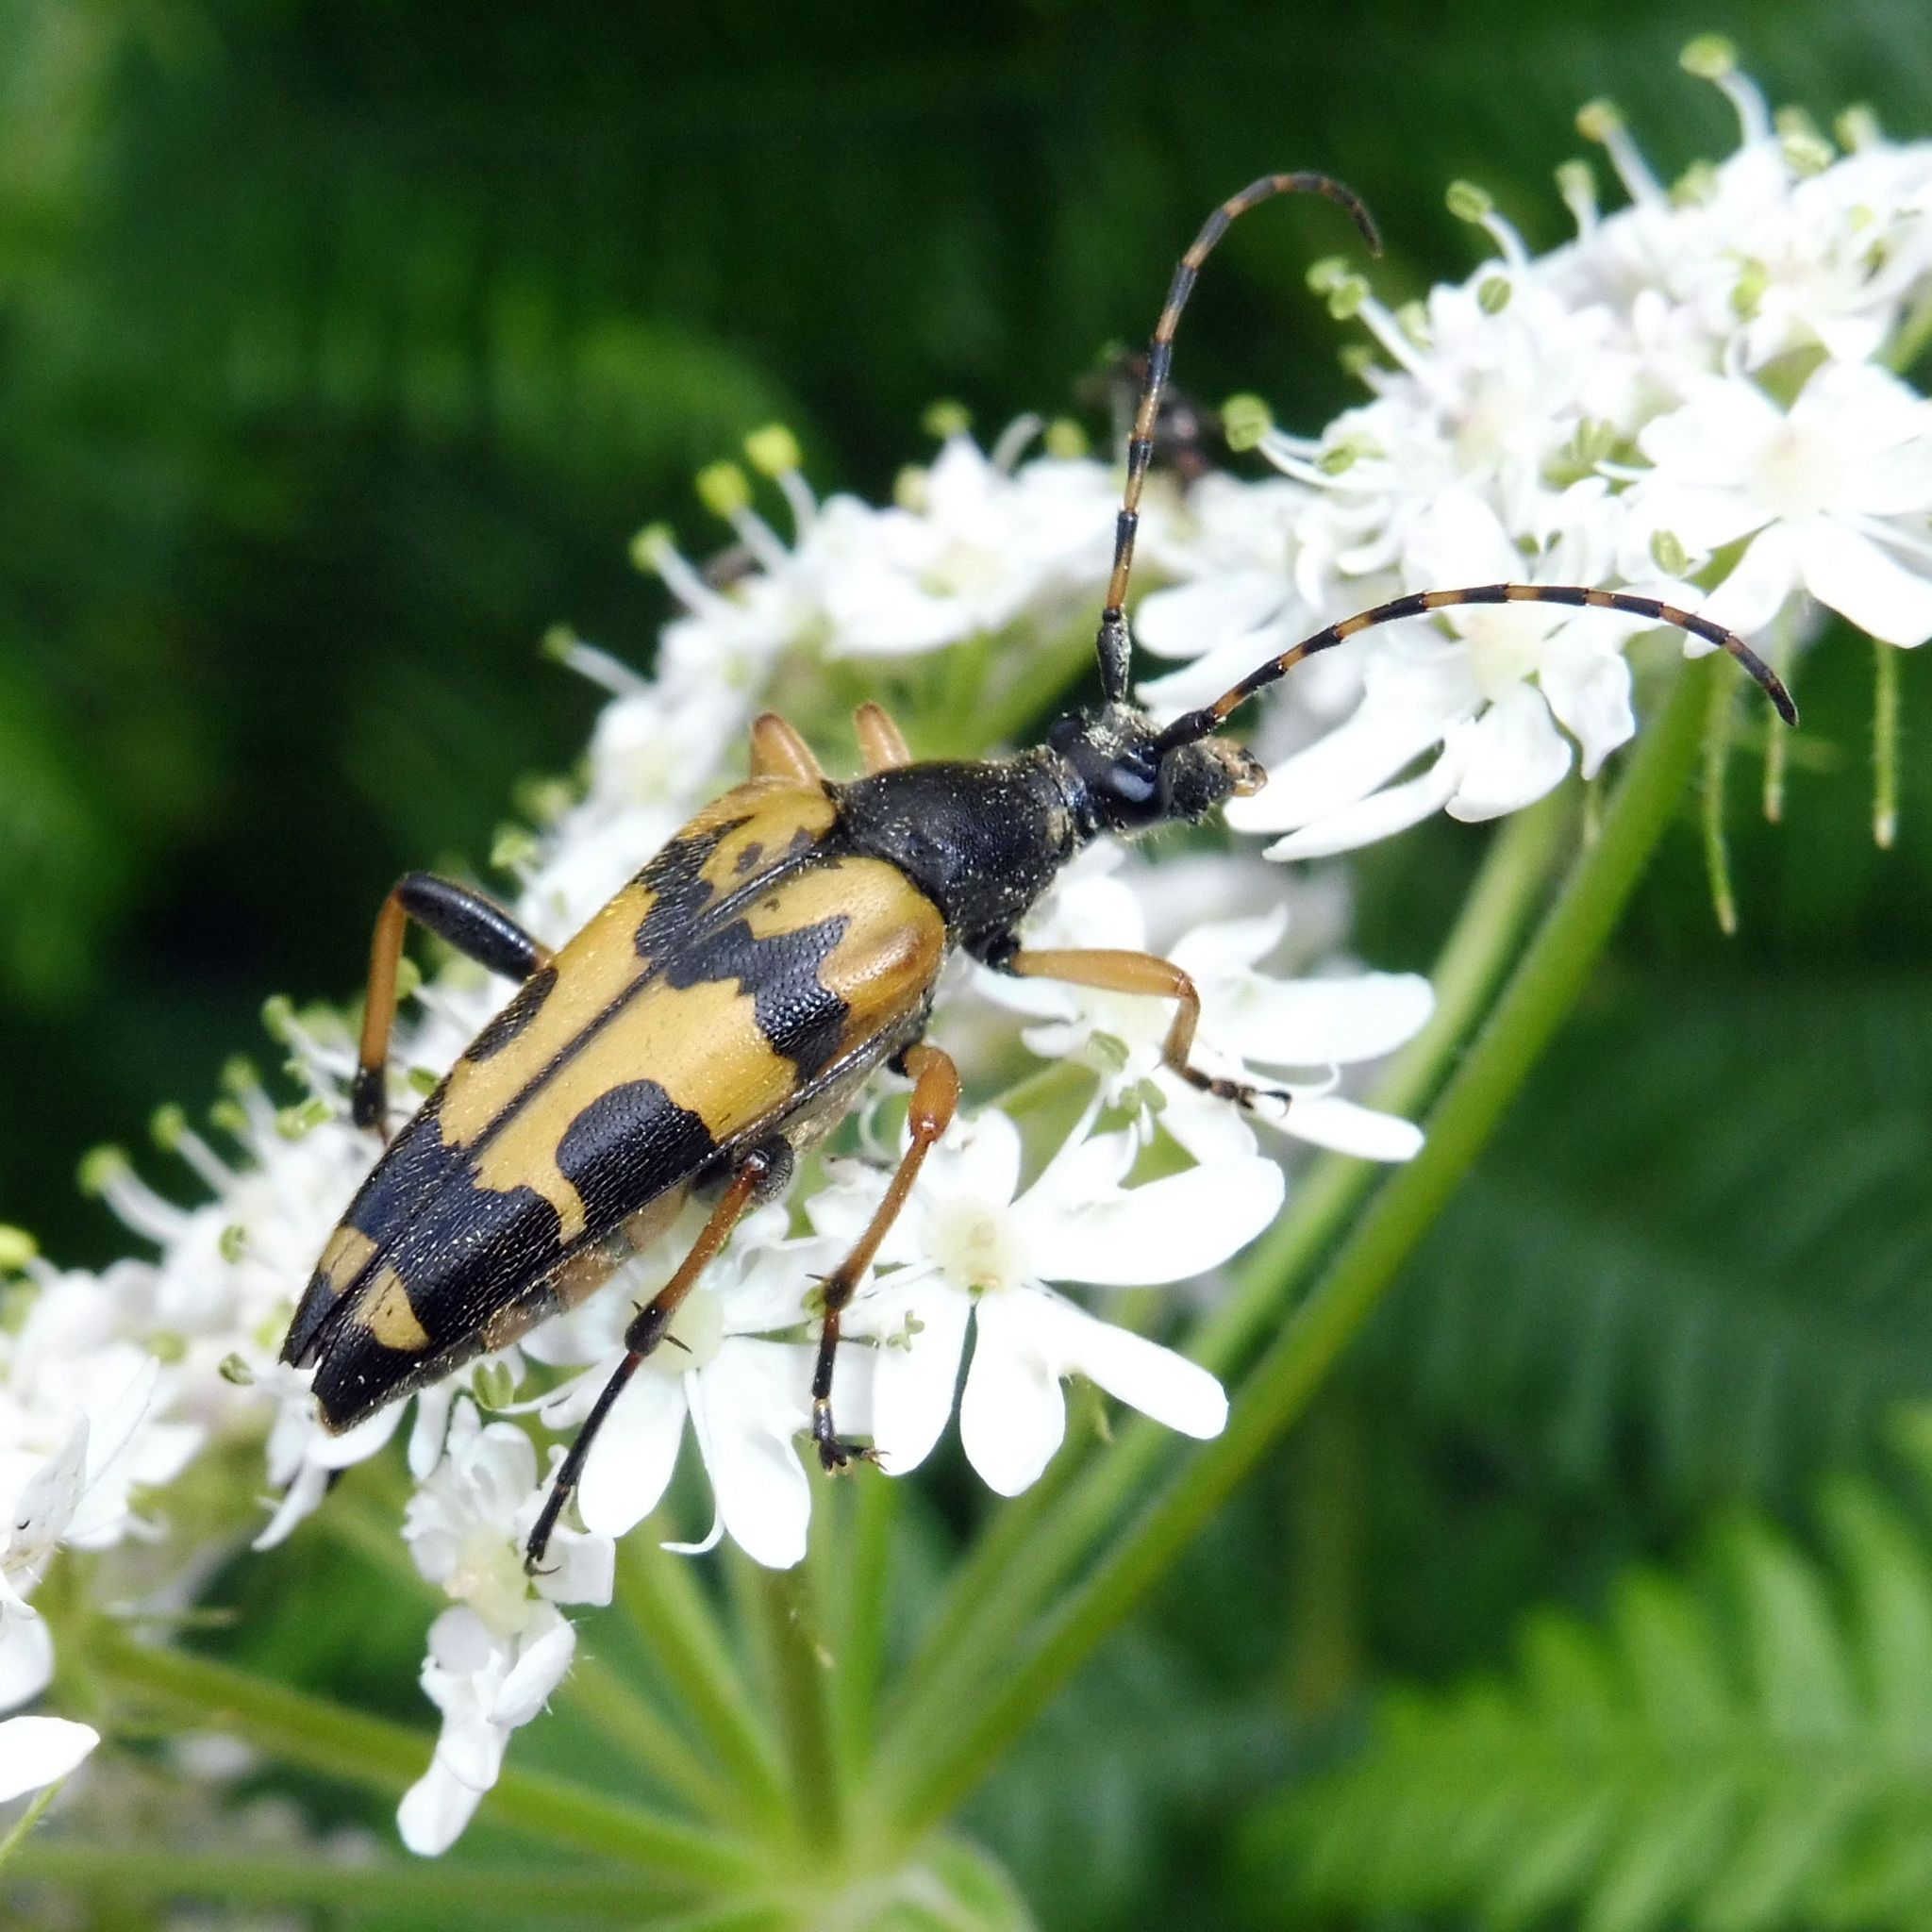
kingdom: Animalia
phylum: Arthropoda
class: Insecta
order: Coleoptera
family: Cerambycidae
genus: Rutpela
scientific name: Rutpela maculata
